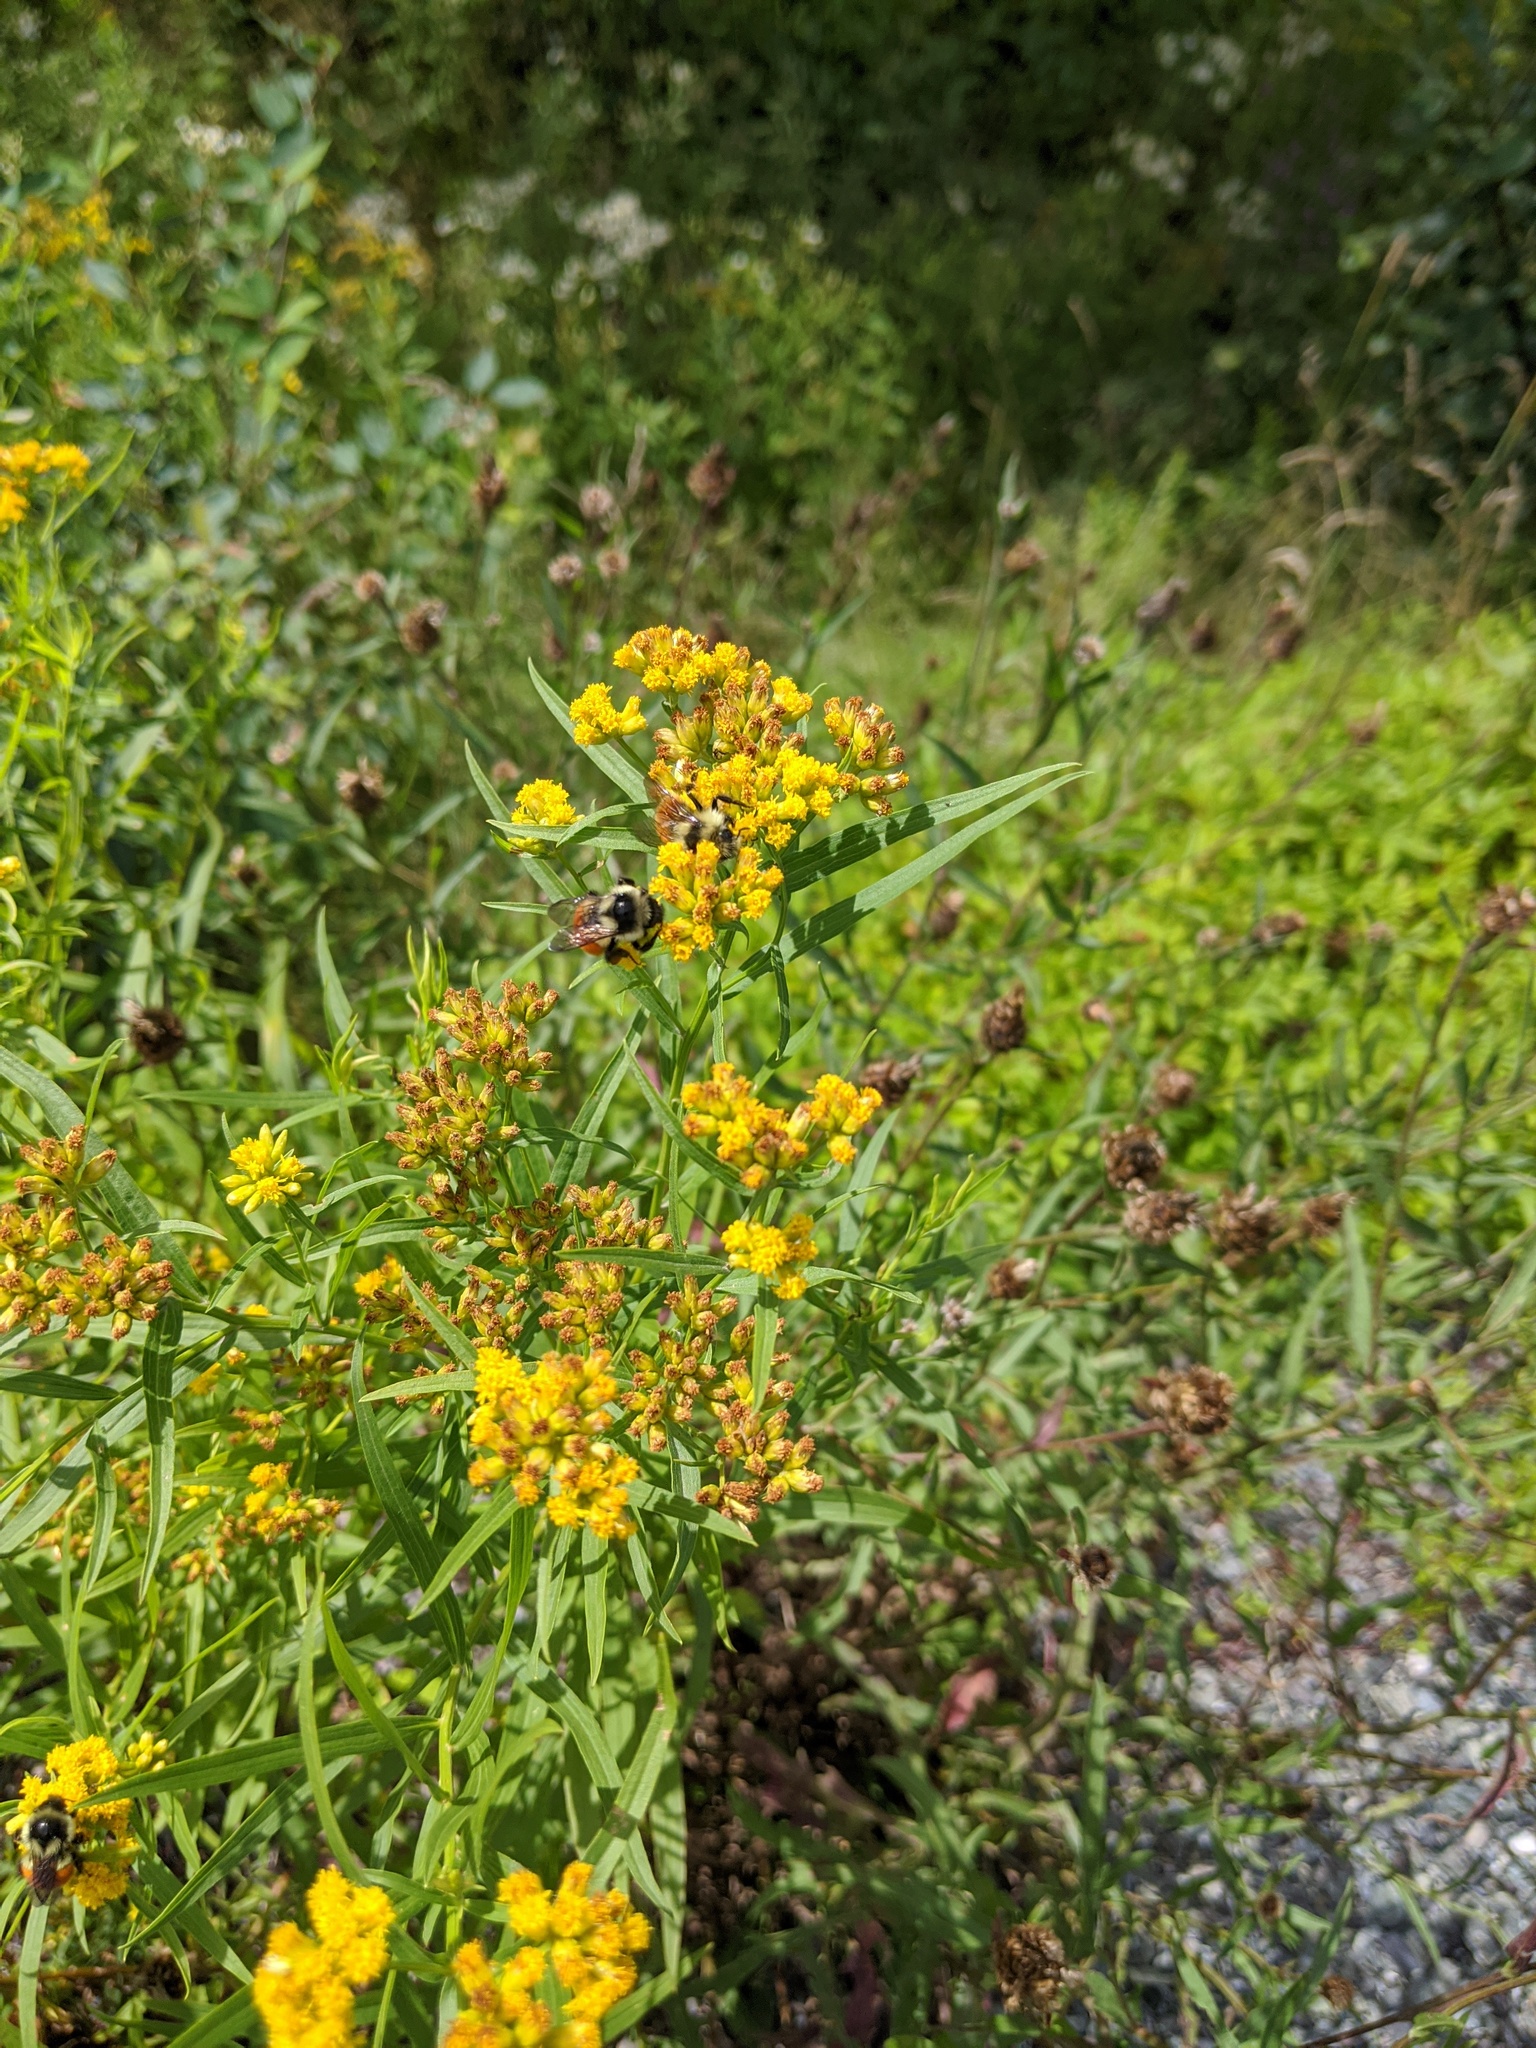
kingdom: Animalia
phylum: Arthropoda
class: Insecta
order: Hymenoptera
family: Apidae
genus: Bombus
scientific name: Bombus ternarius
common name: Tri-colored bumble bee
